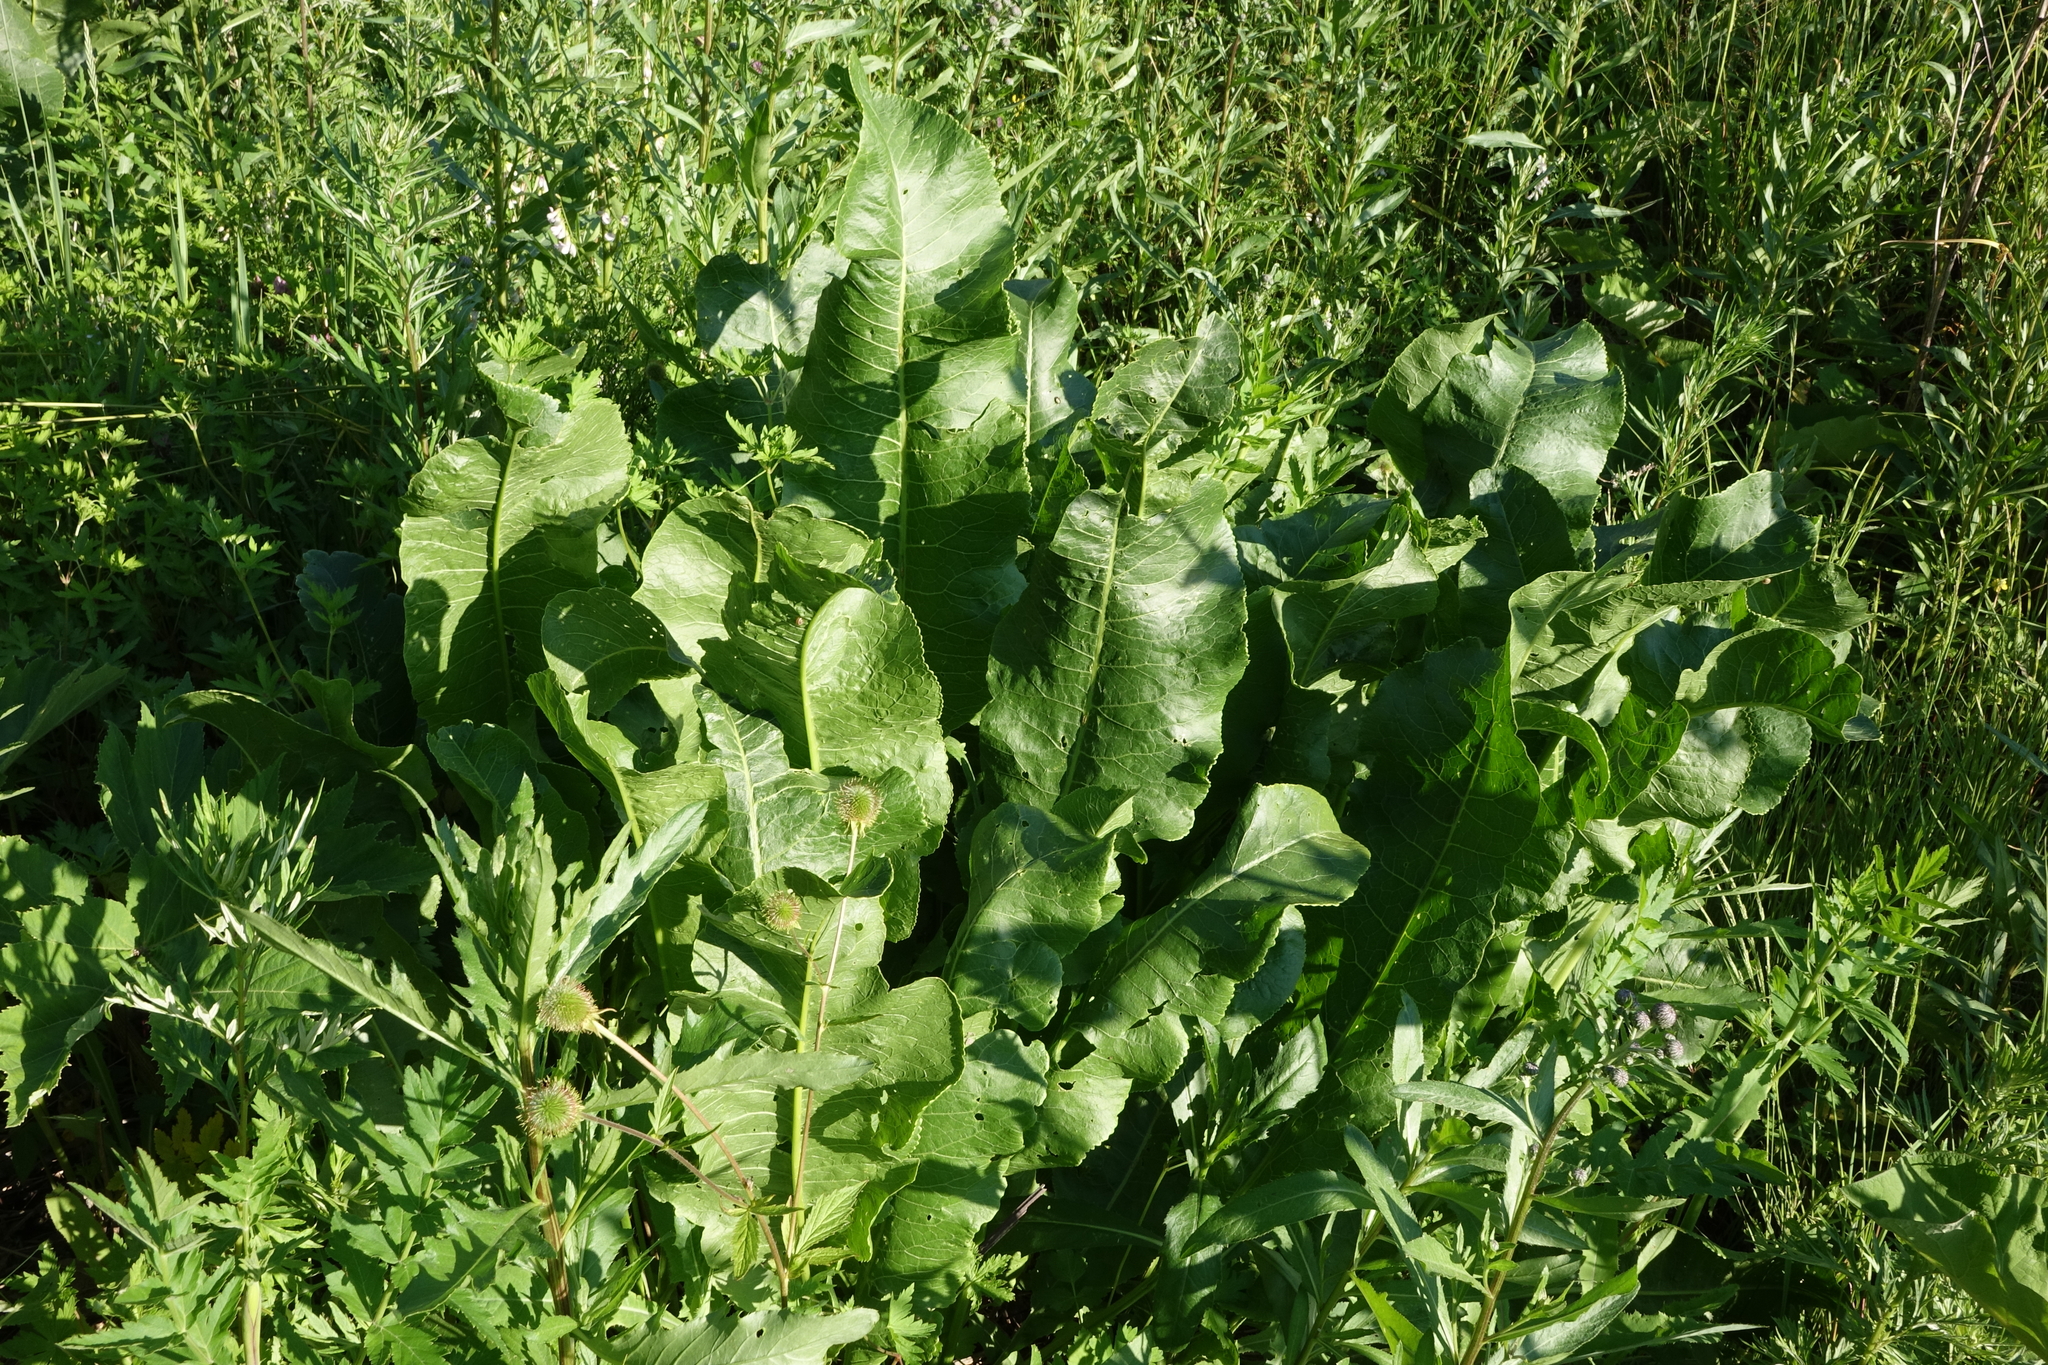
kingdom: Plantae
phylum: Tracheophyta
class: Magnoliopsida
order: Brassicales
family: Brassicaceae
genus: Armoracia
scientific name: Armoracia rusticana
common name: Horseradish
